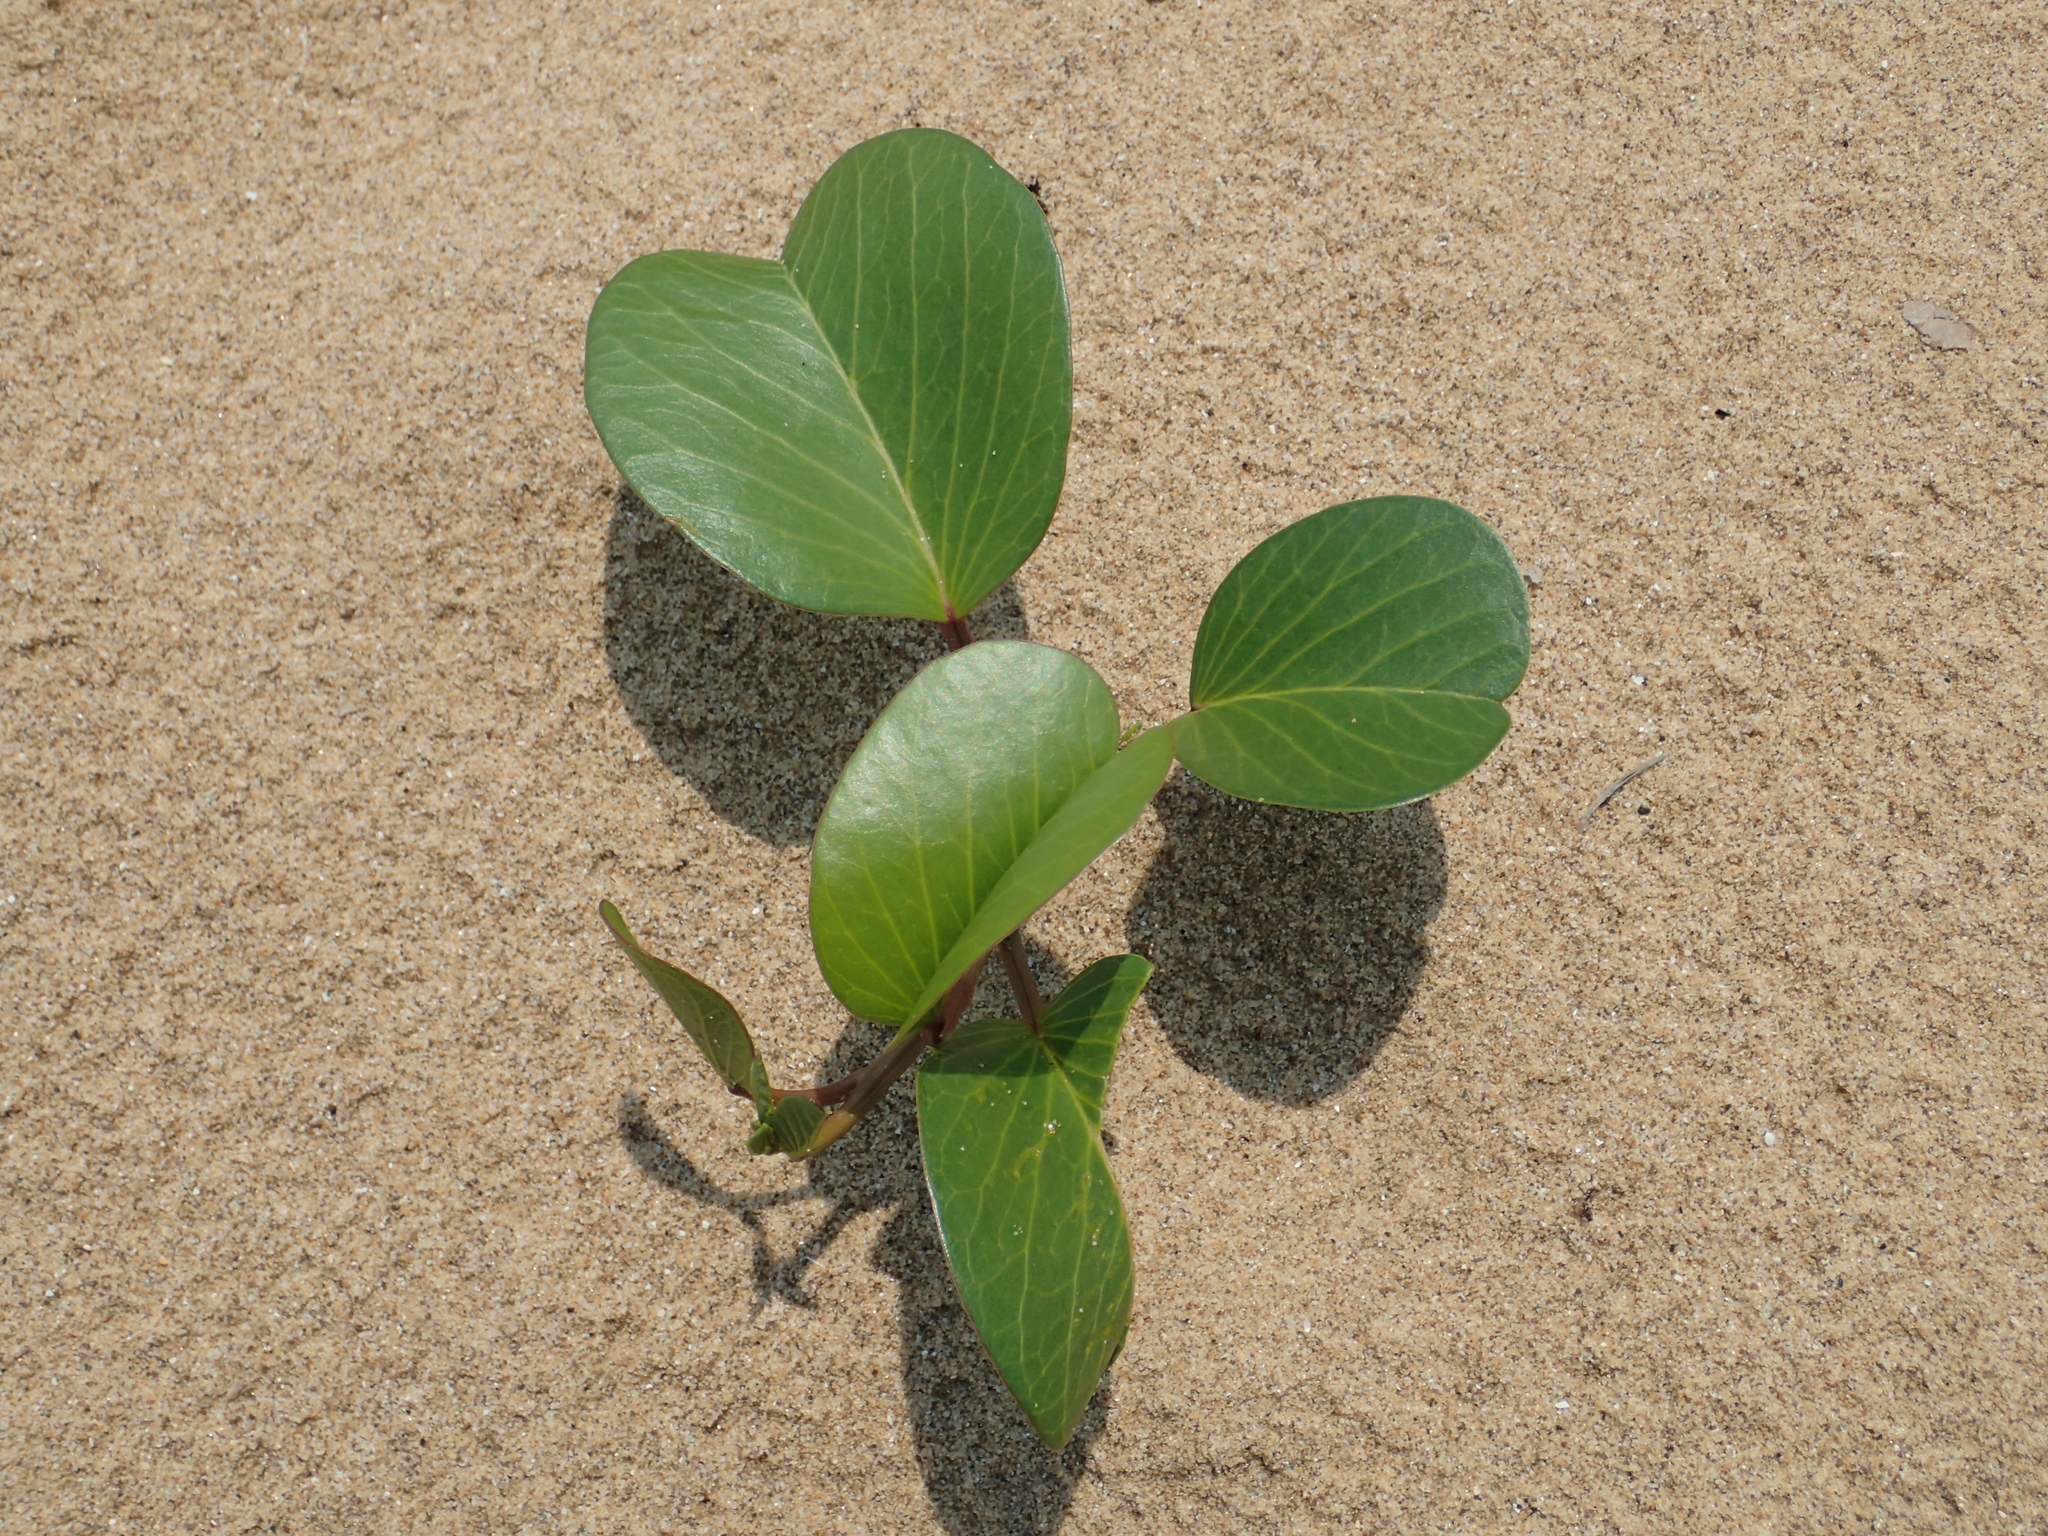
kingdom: Plantae
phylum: Tracheophyta
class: Magnoliopsida
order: Solanales
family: Convolvulaceae
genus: Ipomoea
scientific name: Ipomoea pes-caprae
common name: Beach morning glory
